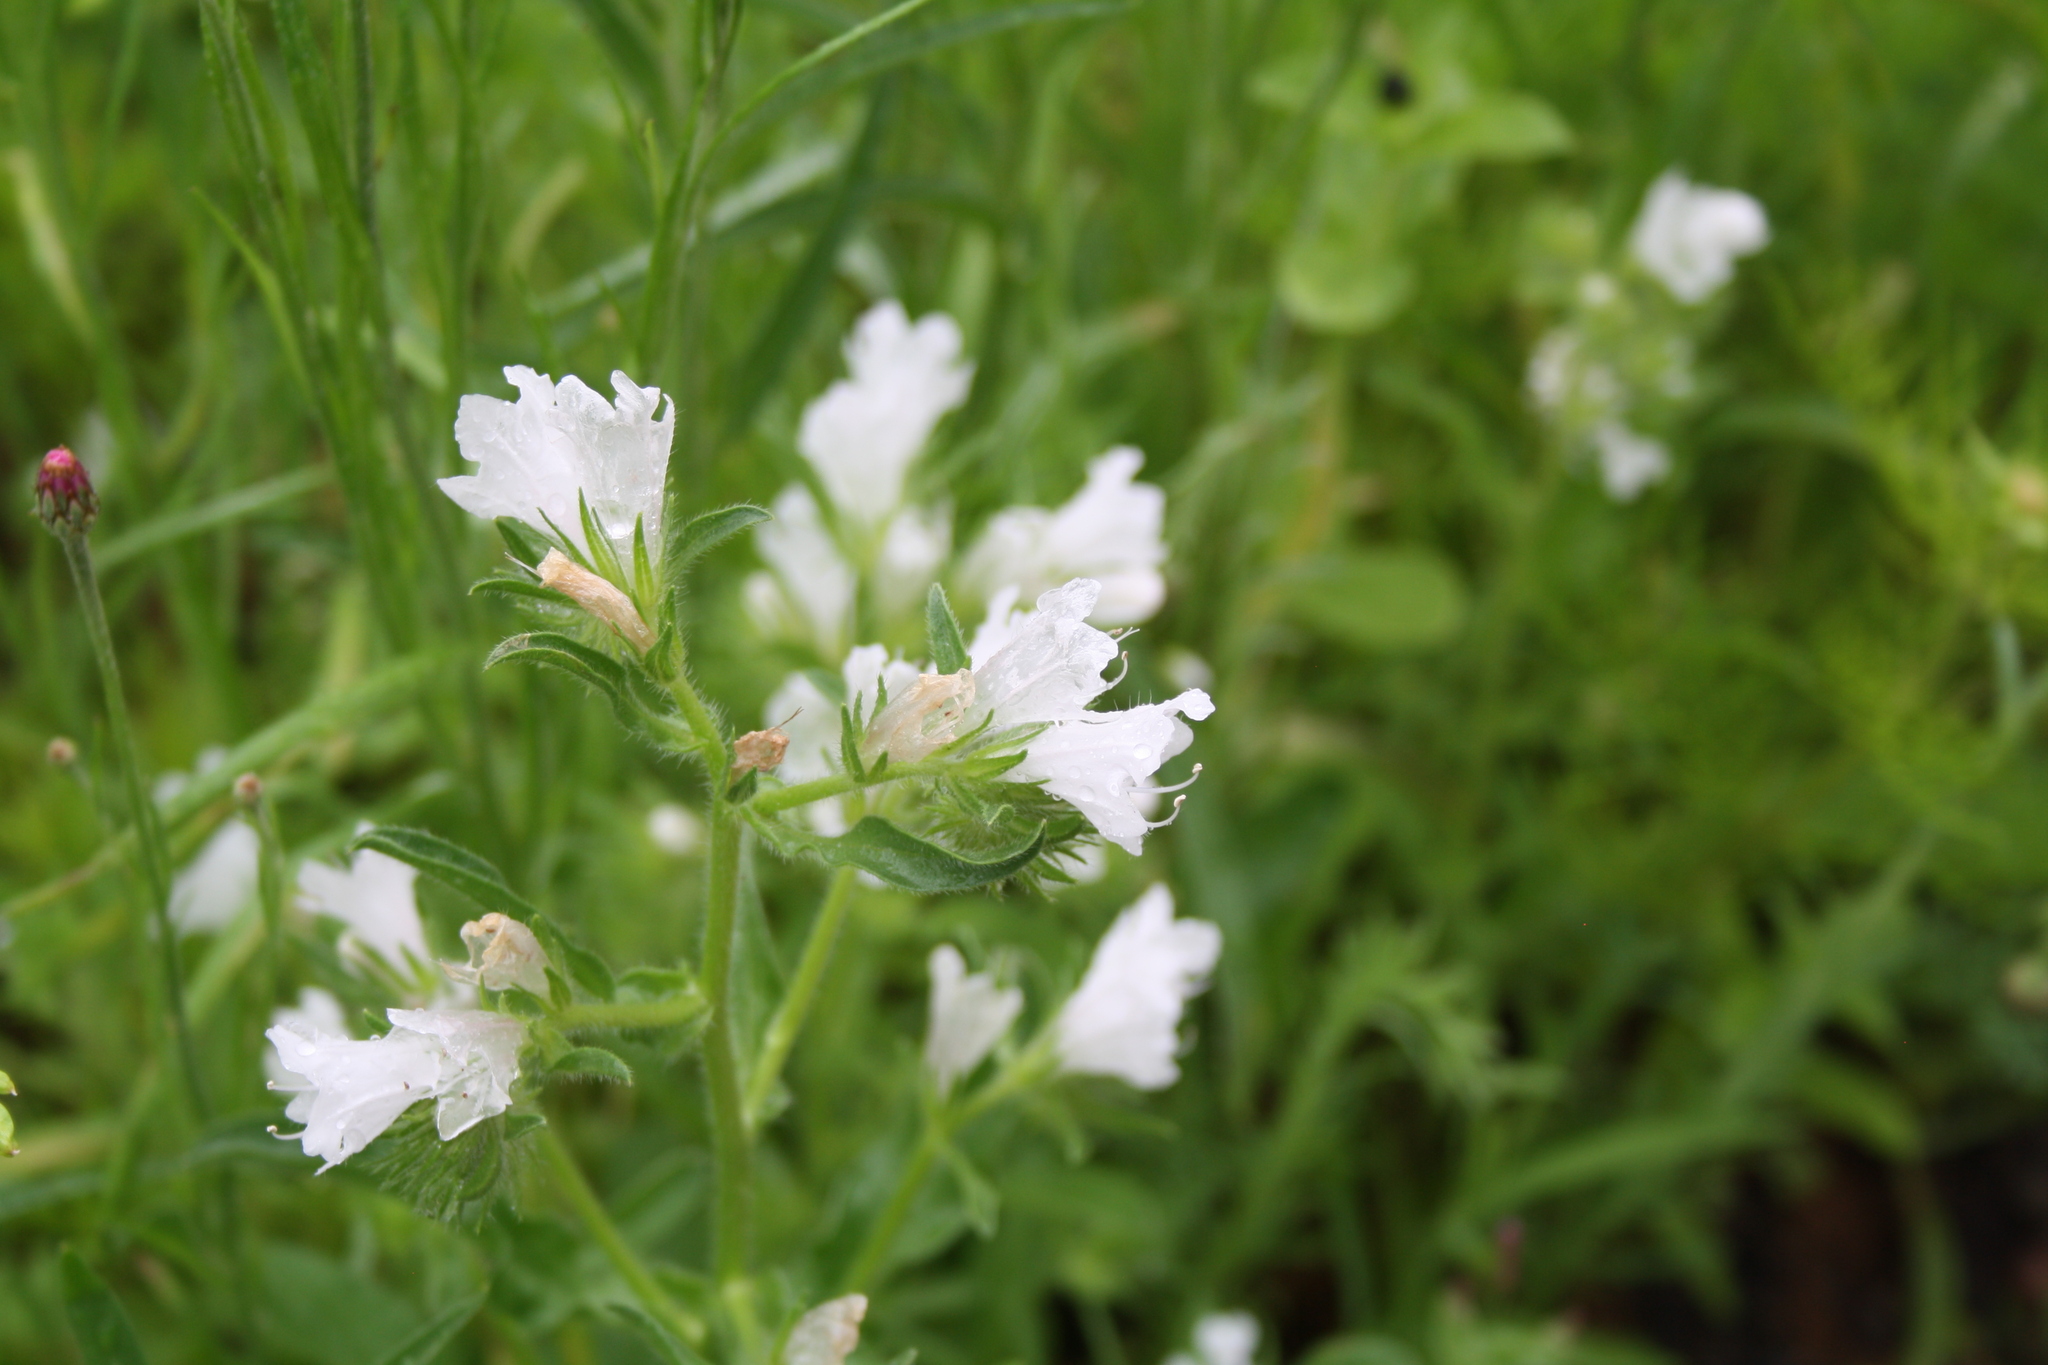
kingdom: Plantae
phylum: Tracheophyta
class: Magnoliopsida
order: Boraginales
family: Boraginaceae
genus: Echium
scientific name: Echium plantagineum
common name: Purple viper's-bugloss
